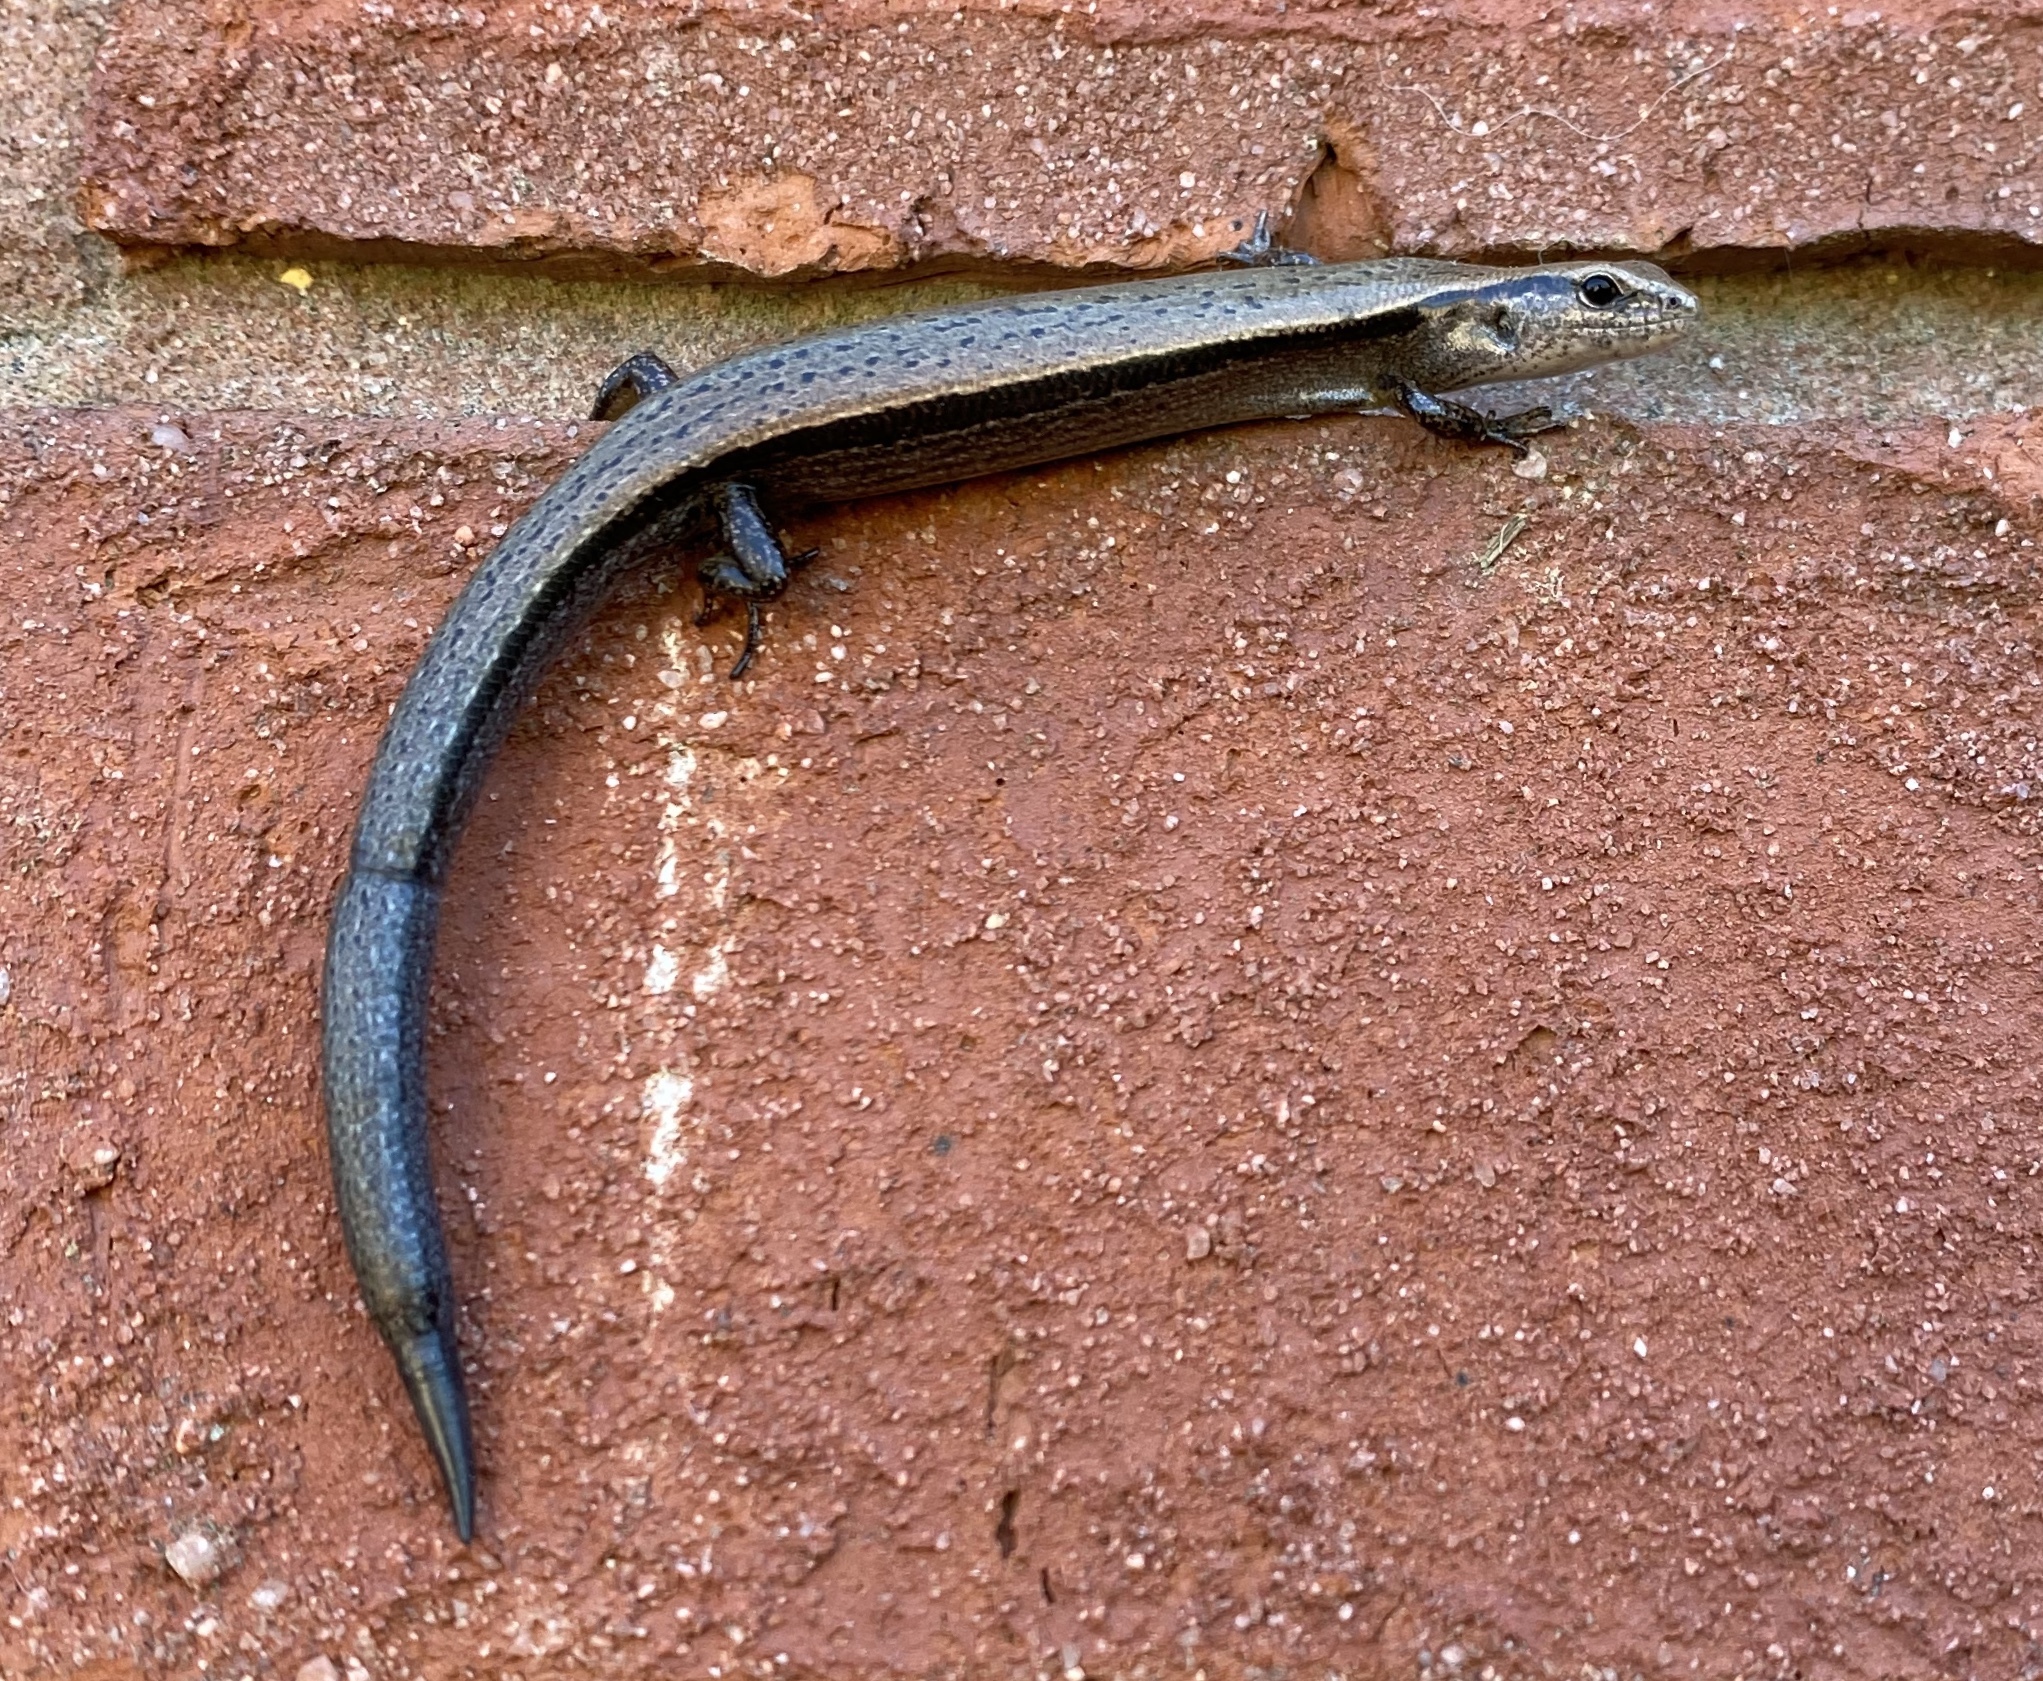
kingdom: Animalia
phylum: Chordata
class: Squamata
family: Scincidae
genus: Scincella
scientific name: Scincella lateralis
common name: Ground skink
